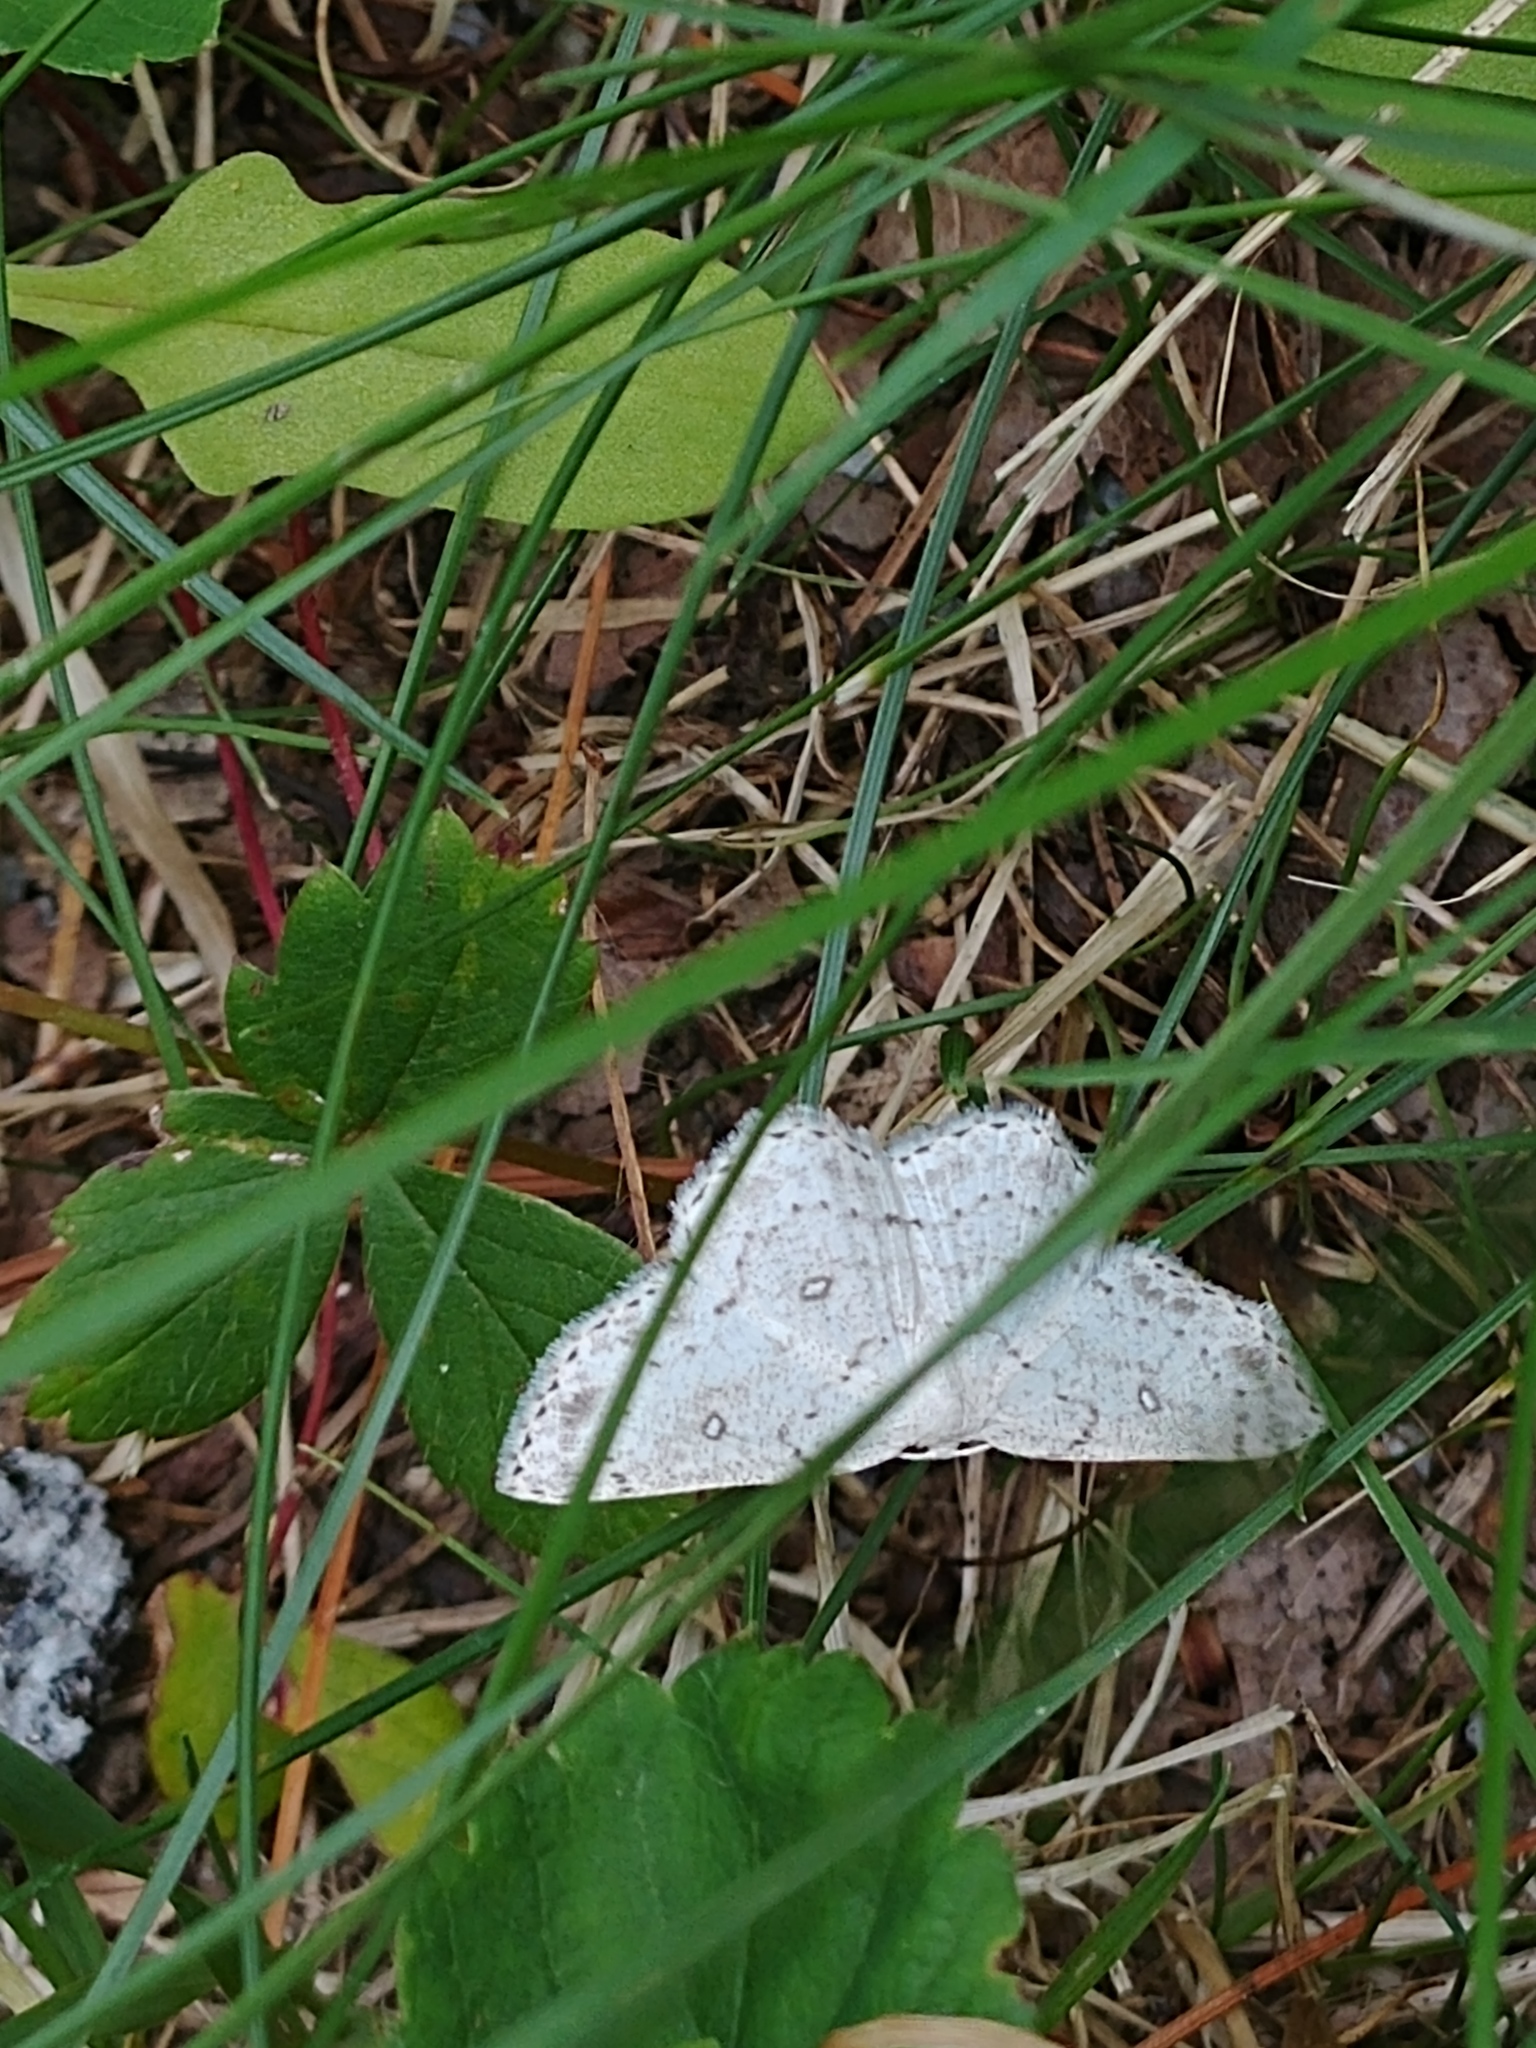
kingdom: Animalia
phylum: Arthropoda
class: Insecta
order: Lepidoptera
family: Geometridae
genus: Cyclophora
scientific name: Cyclophora pendulinaria
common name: Sweet fern geometer
